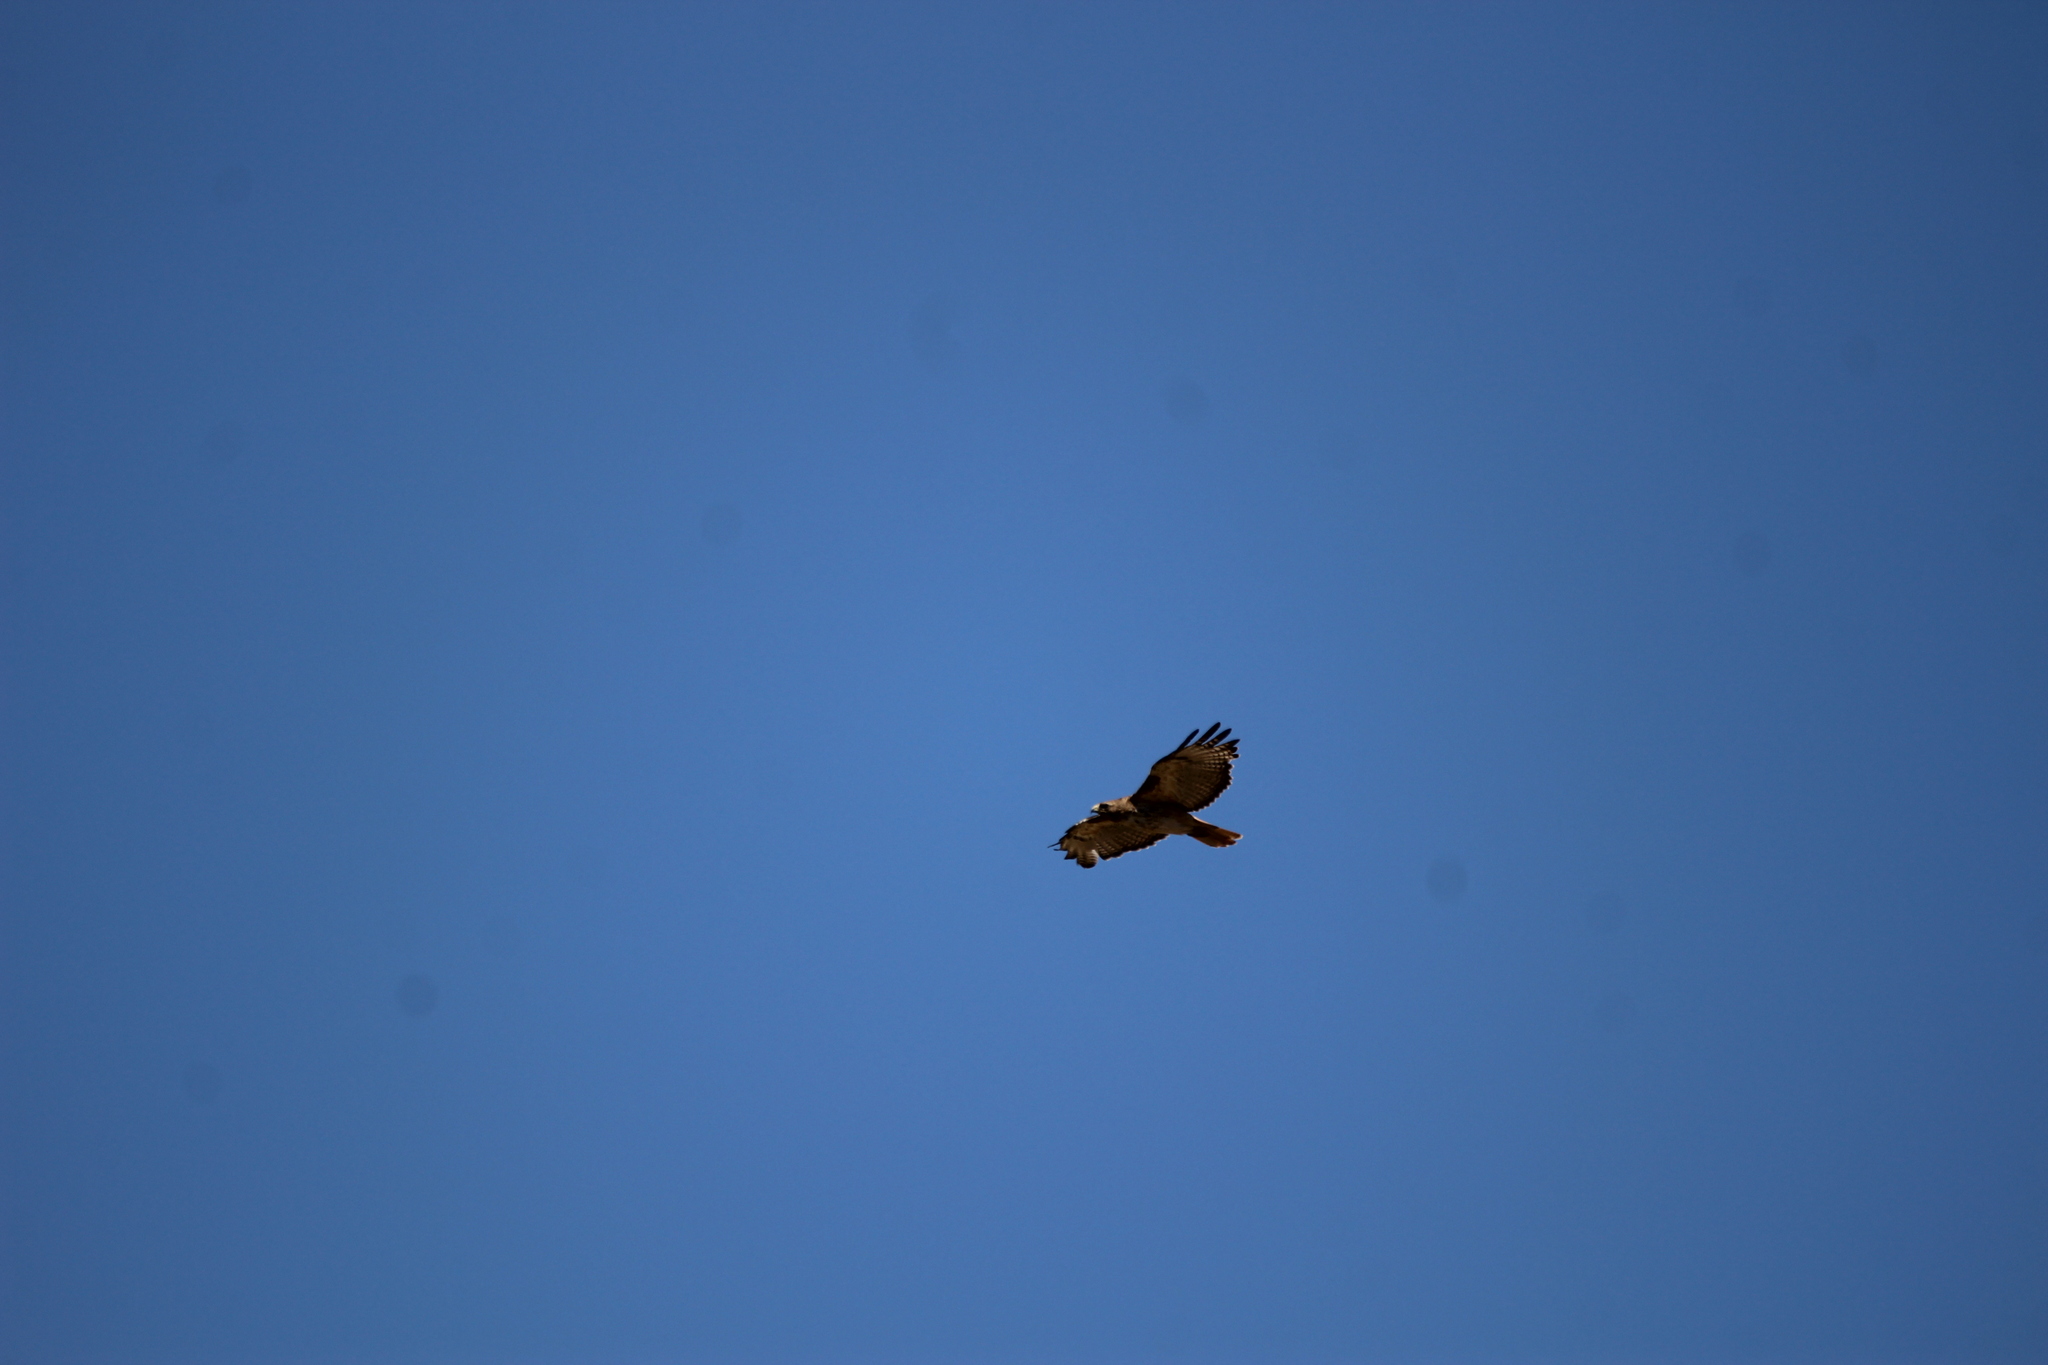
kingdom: Animalia
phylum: Chordata
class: Aves
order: Accipitriformes
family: Accipitridae
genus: Buteo
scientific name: Buteo jamaicensis
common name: Red-tailed hawk
